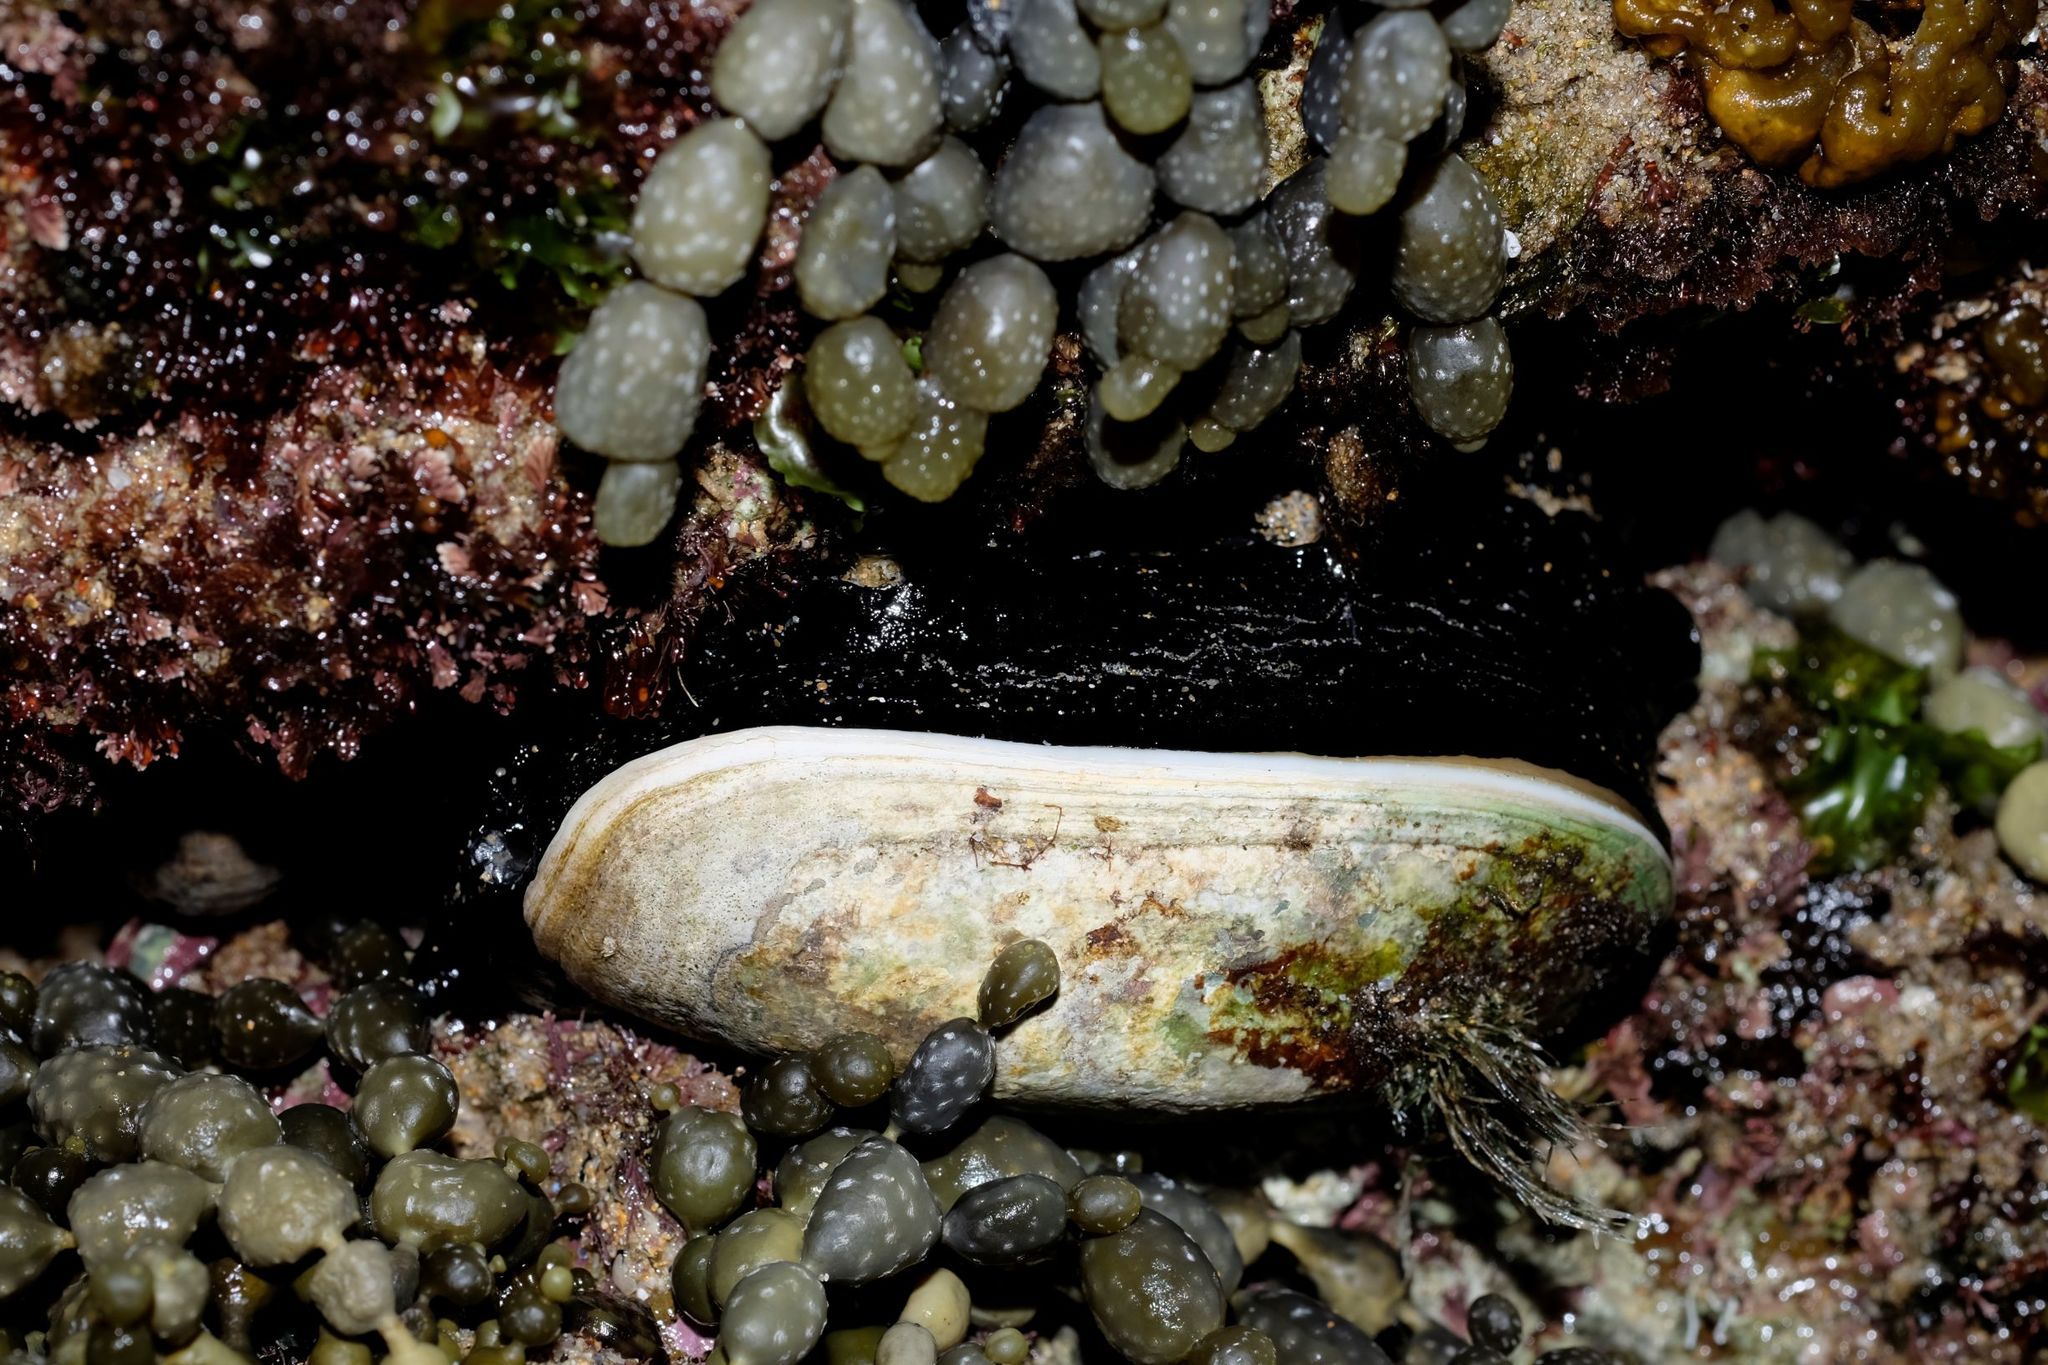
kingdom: Animalia
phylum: Mollusca
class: Gastropoda
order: Lepetellida
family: Fissurellidae
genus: Scutus
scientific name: Scutus antipodes
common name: Duckbill shell
